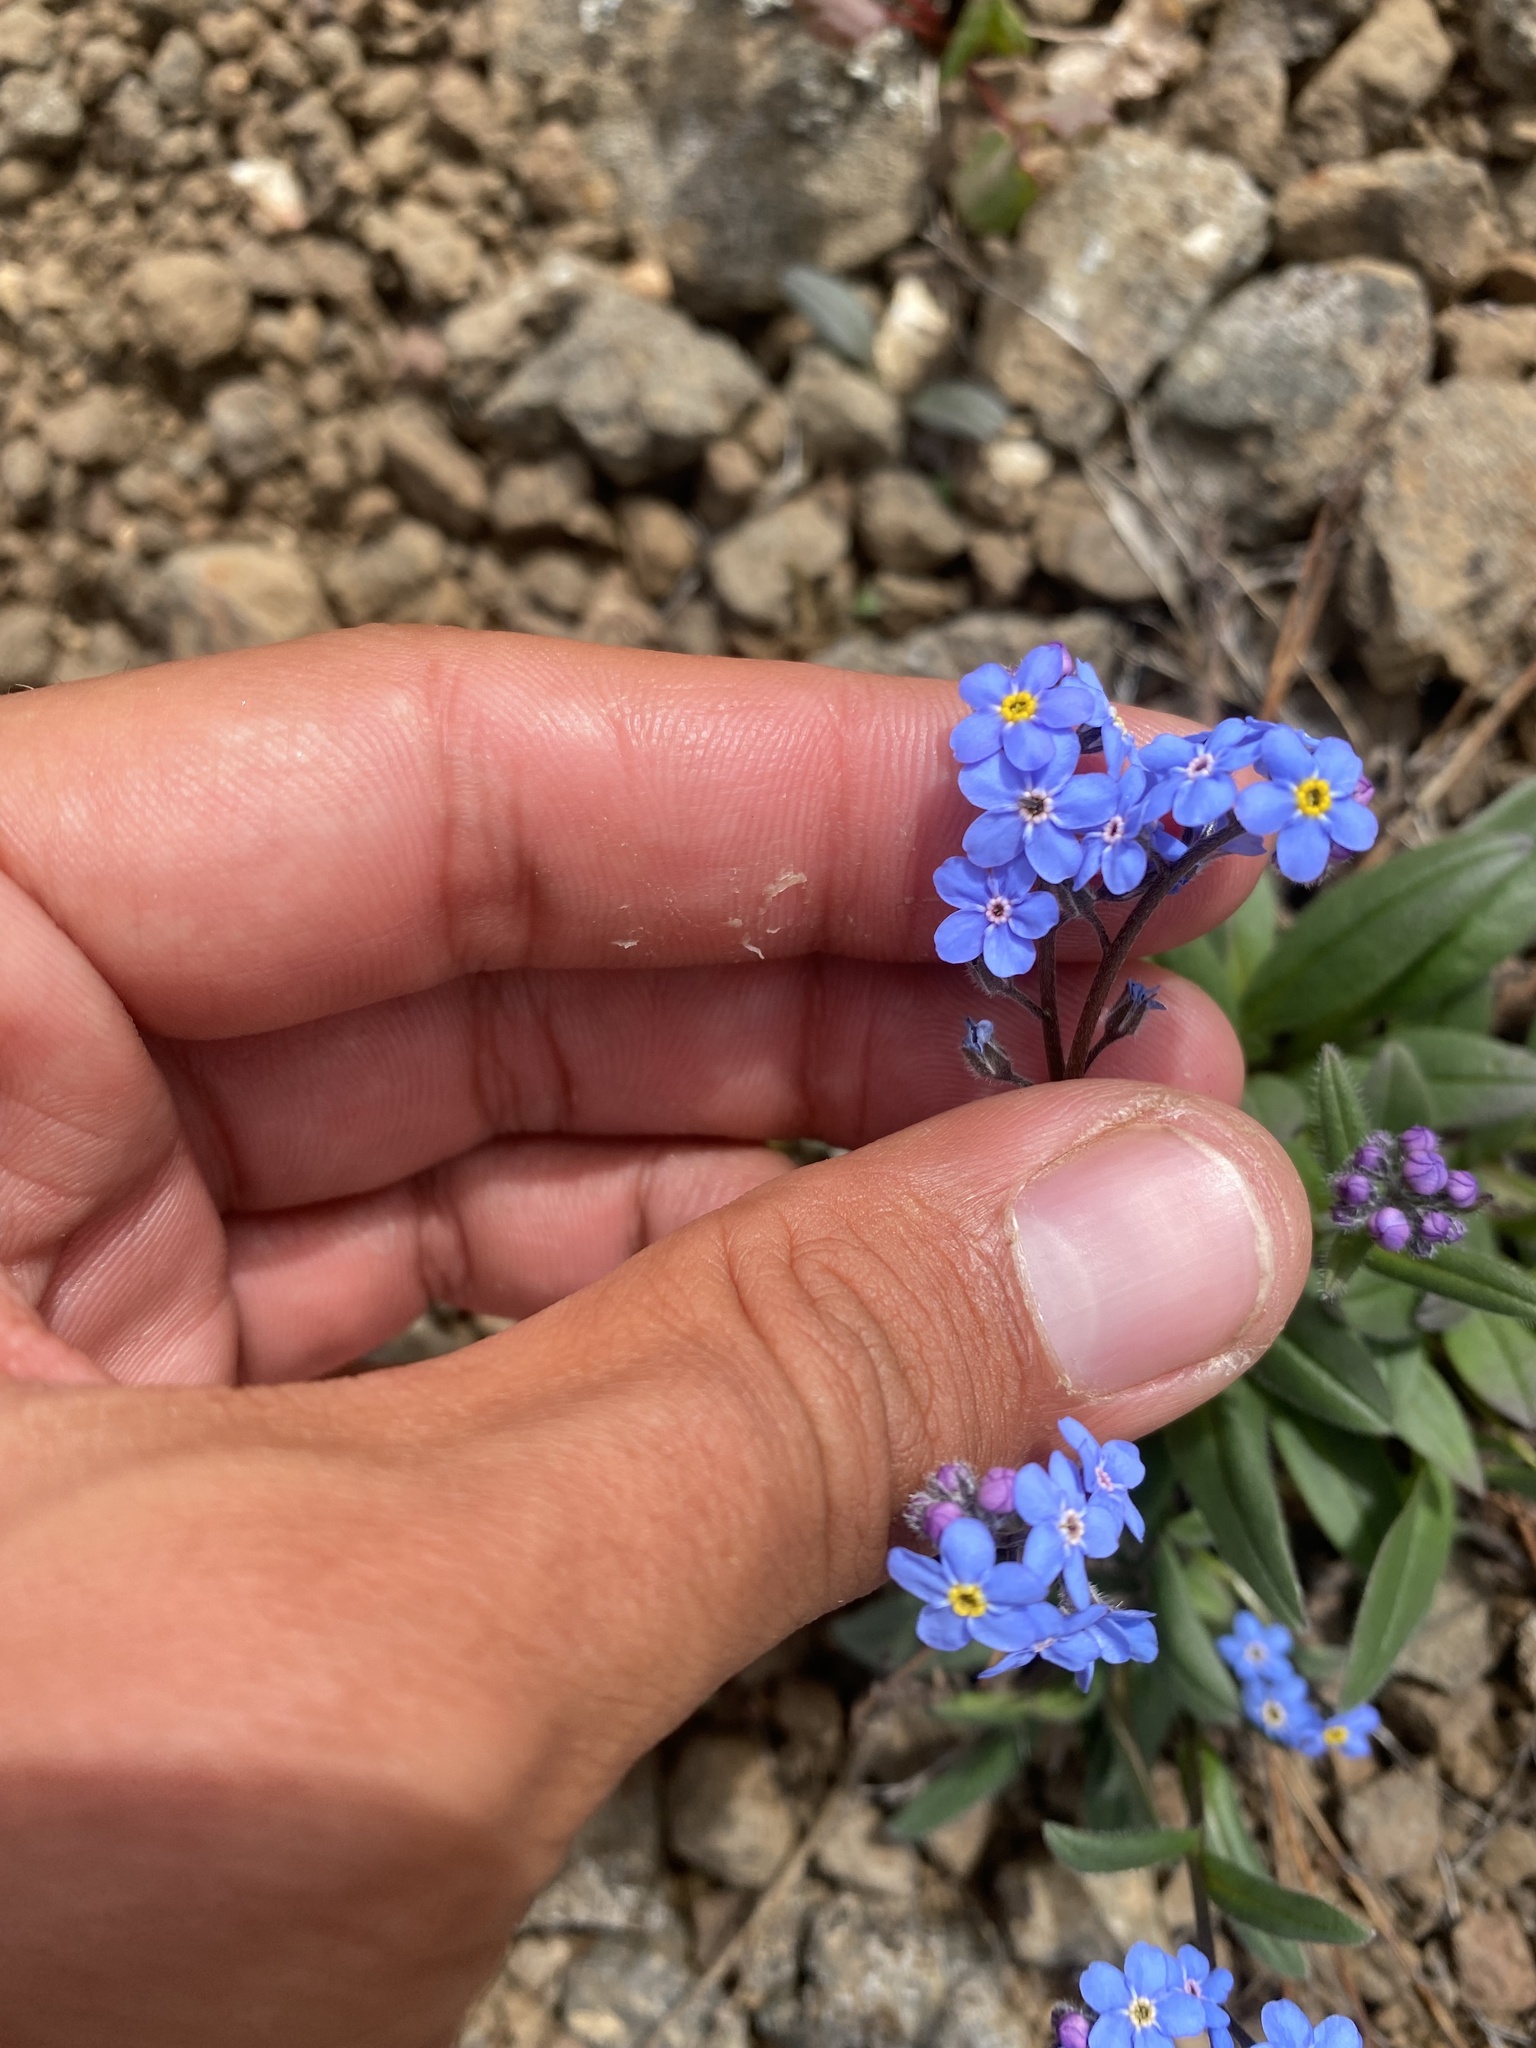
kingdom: Plantae
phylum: Tracheophyta
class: Magnoliopsida
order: Boraginales
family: Boraginaceae
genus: Myosotis
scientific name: Myosotis asiatica
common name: Asian forget-me-not
